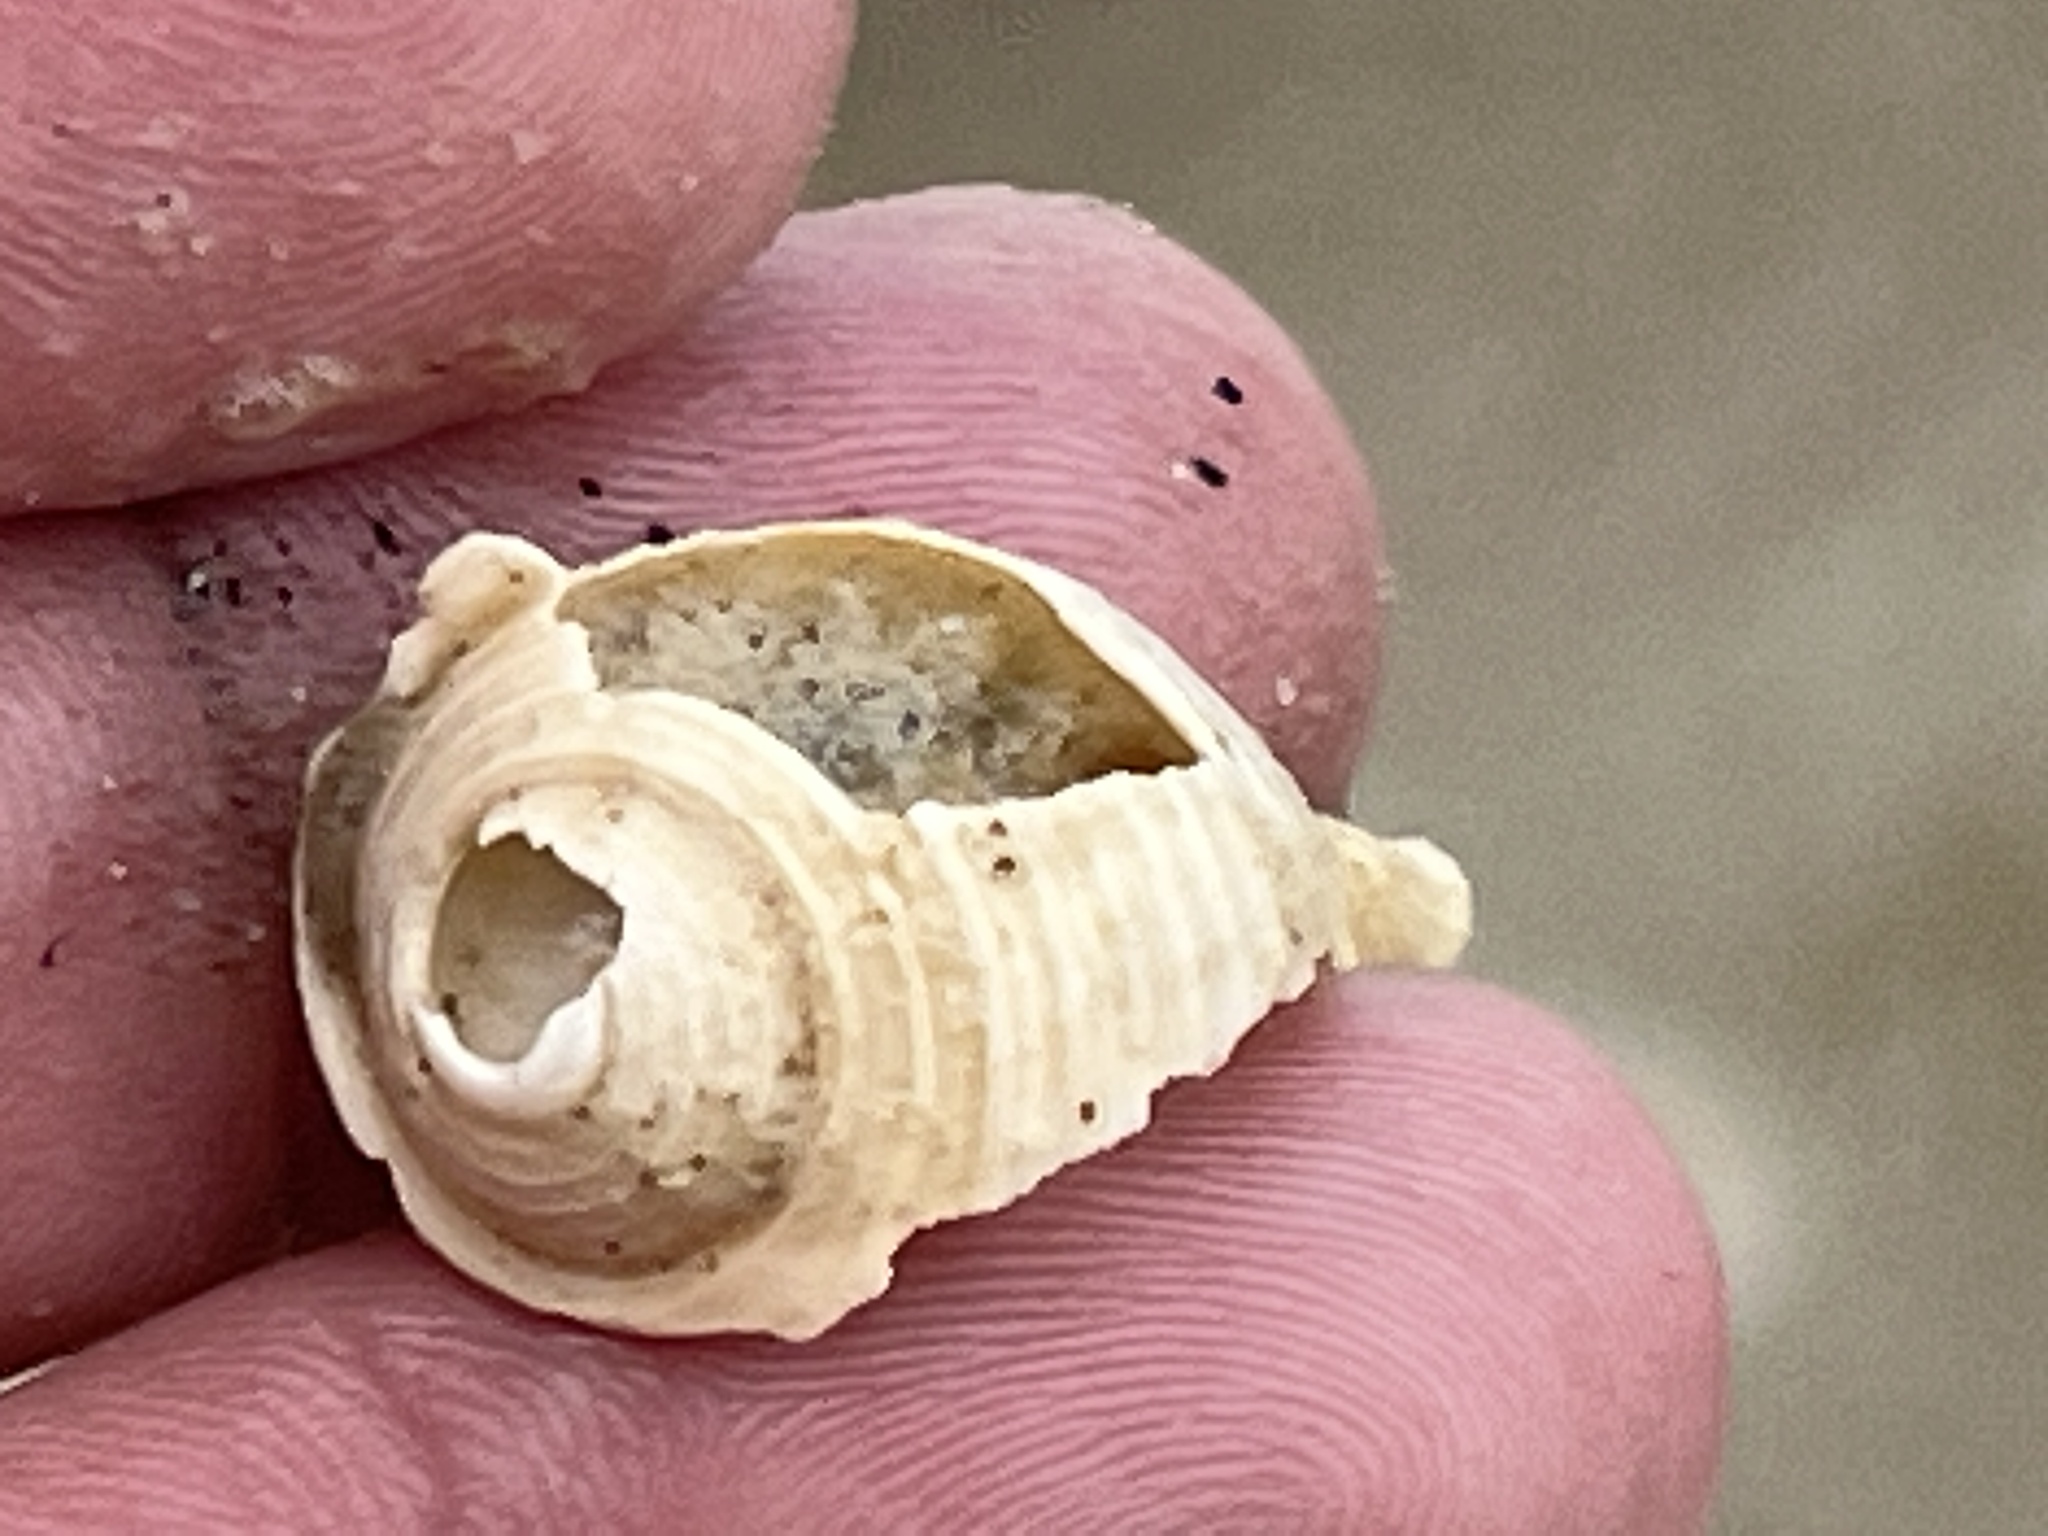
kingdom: Animalia
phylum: Mollusca
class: Gastropoda
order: Littorinimorpha
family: Cassidae
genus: Semicassis
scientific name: Semicassis granulata
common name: Scotch bonnet
